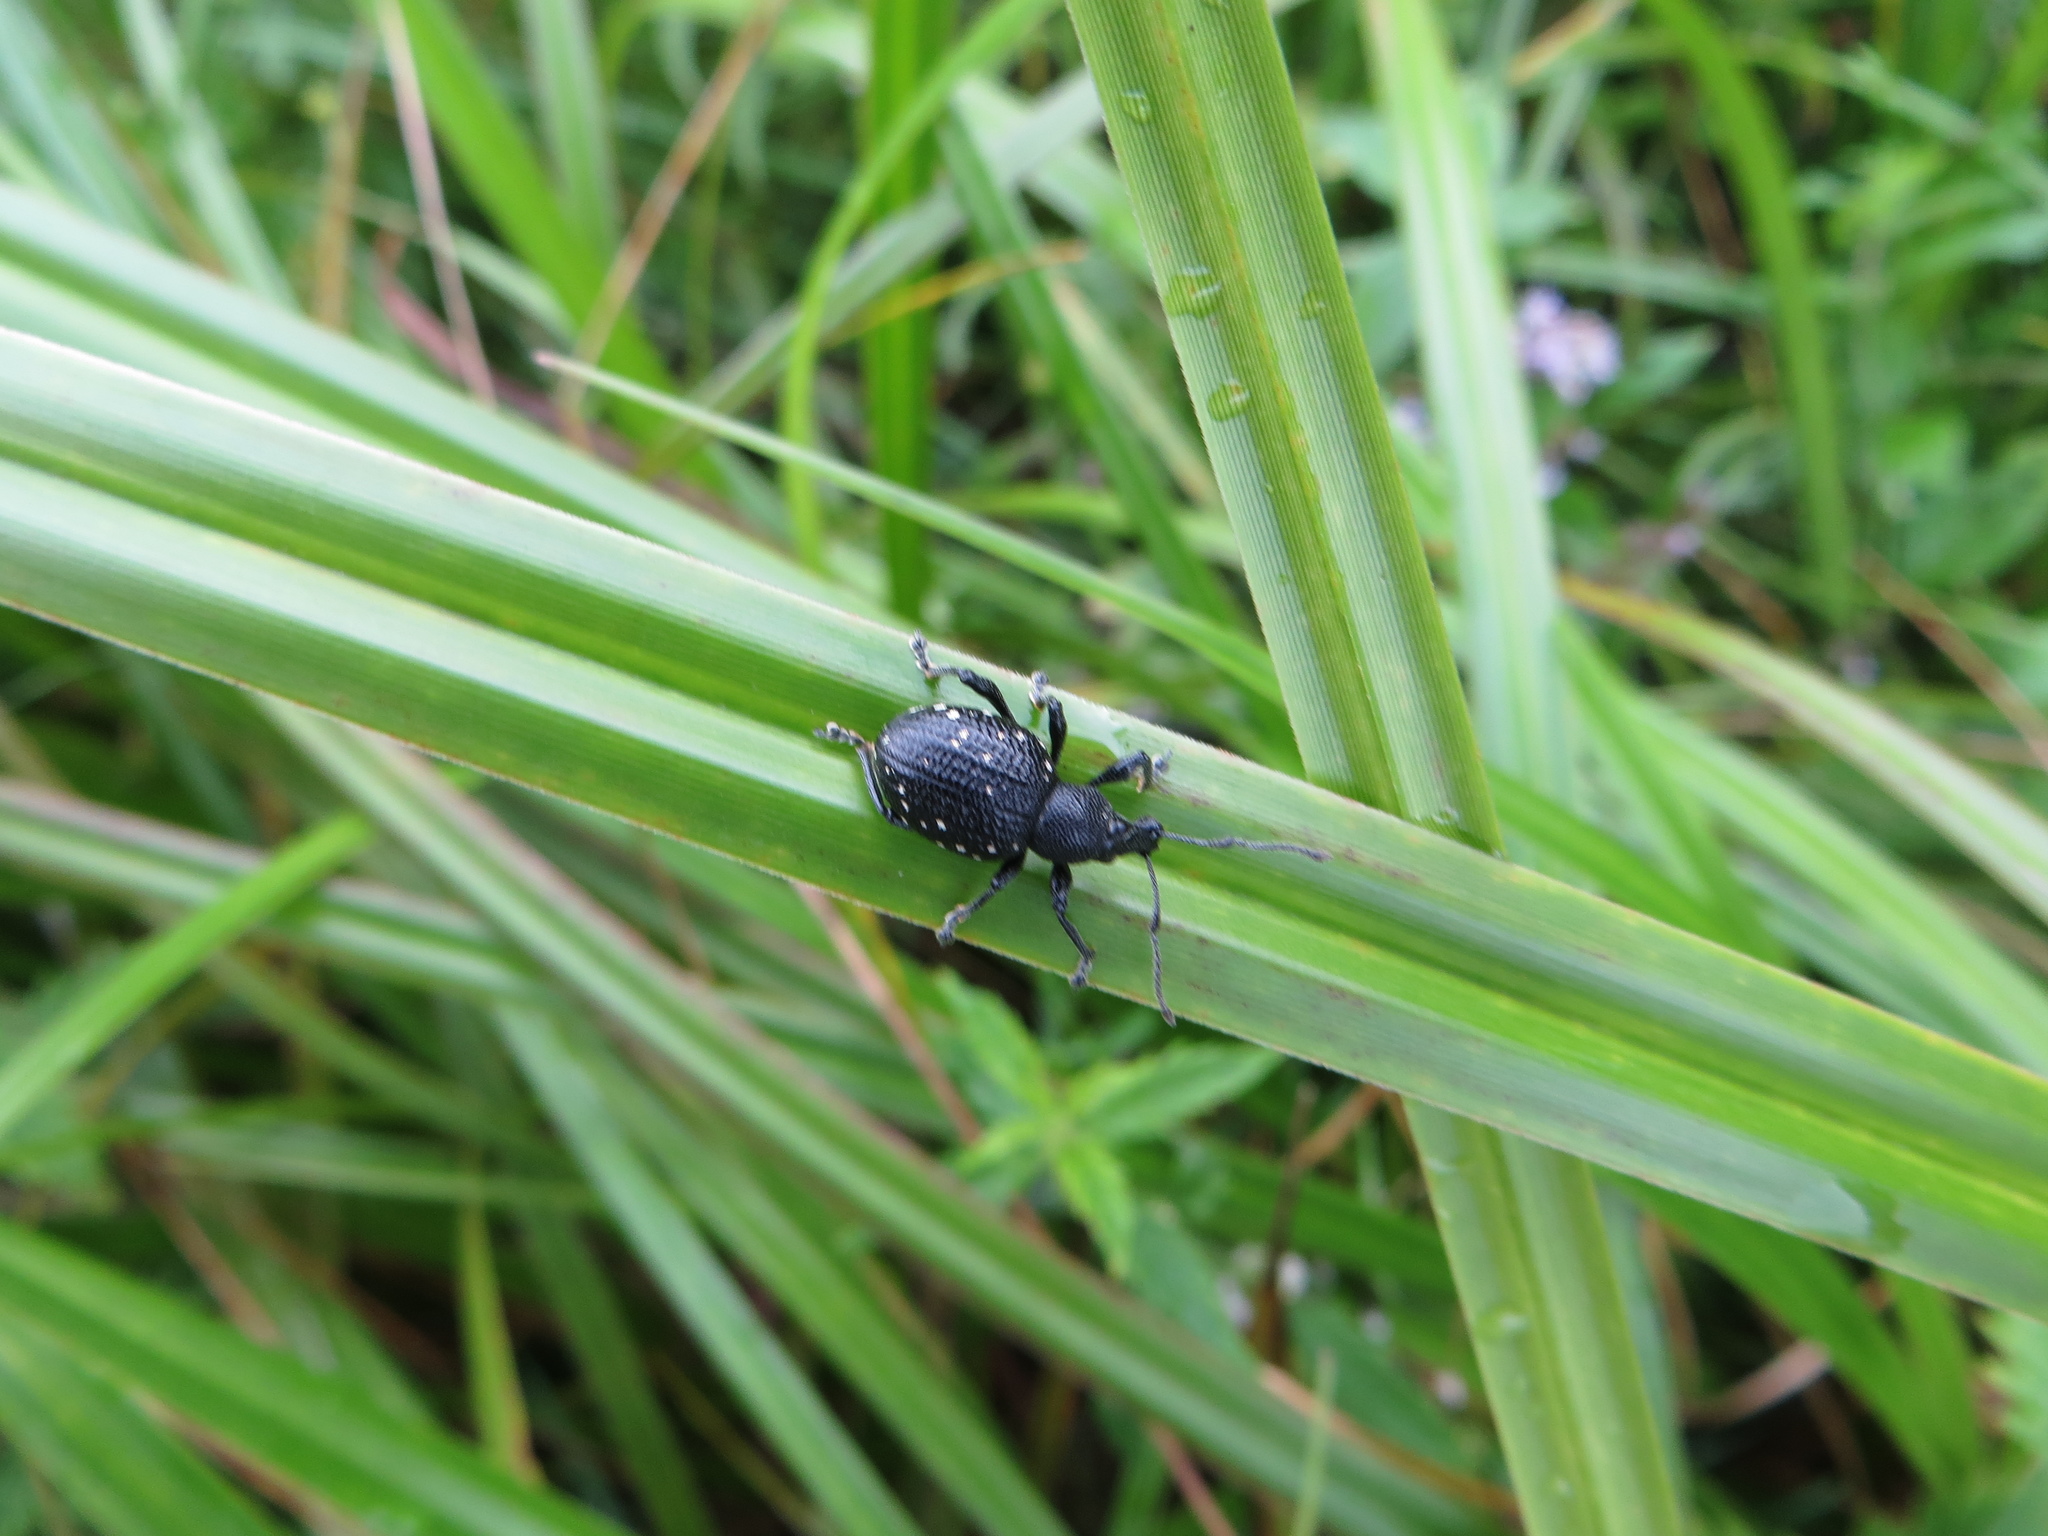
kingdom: Animalia
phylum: Arthropoda
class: Insecta
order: Coleoptera
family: Curculionidae
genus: Otiorhynchus
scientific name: Otiorhynchus gemmatus
